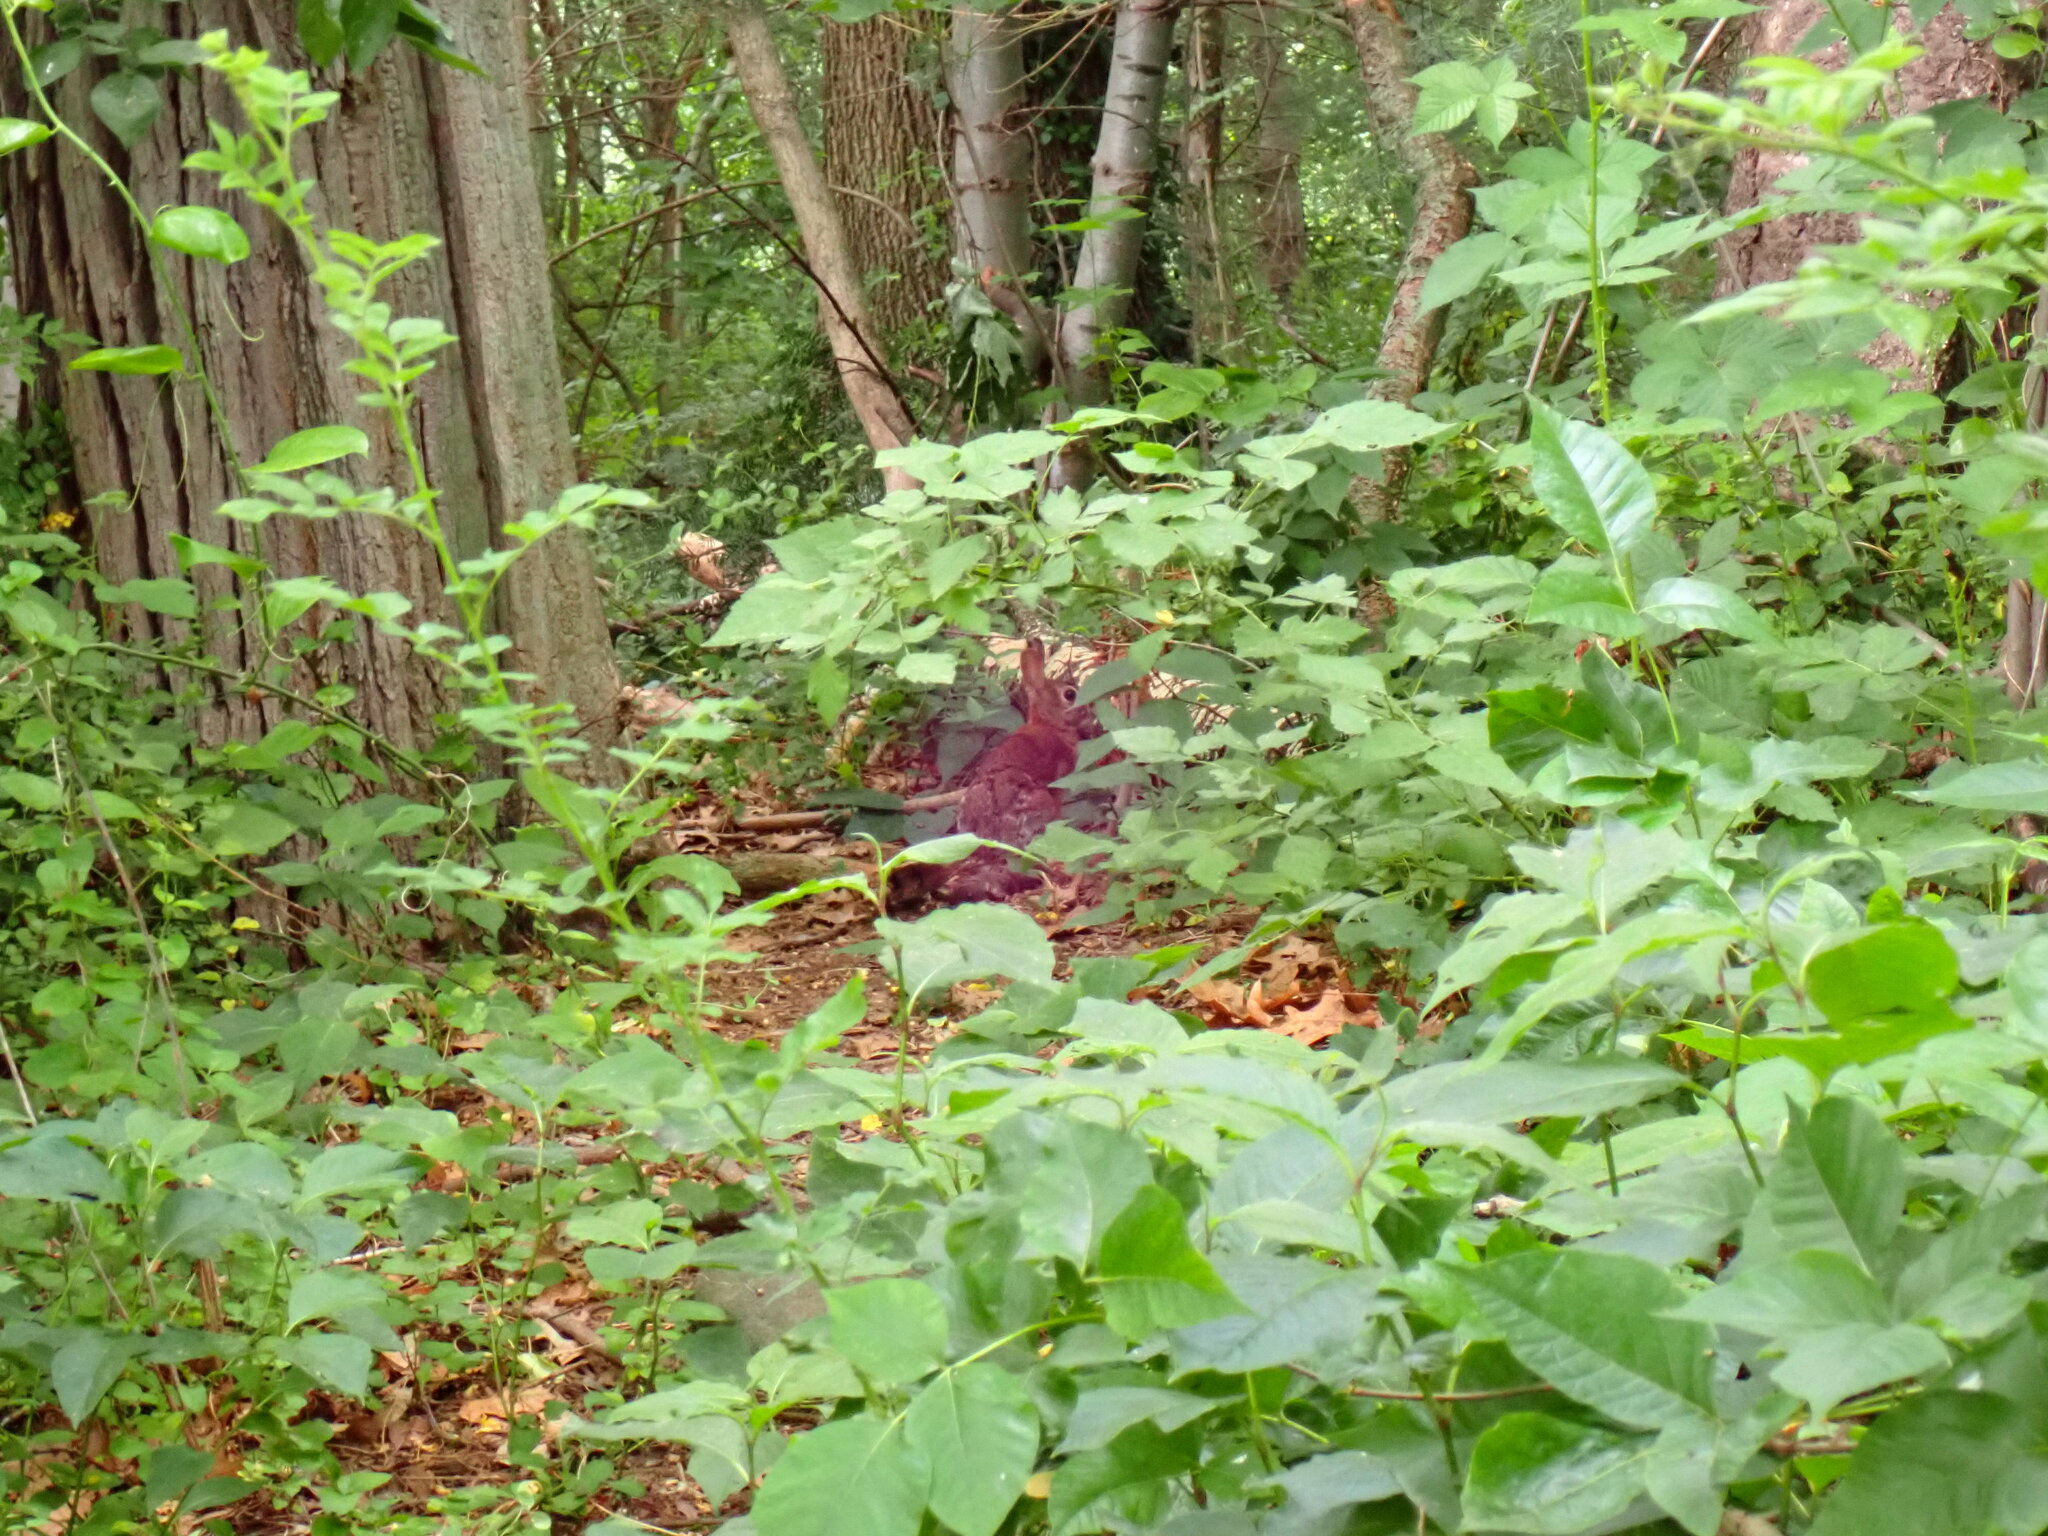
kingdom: Animalia
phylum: Chordata
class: Mammalia
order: Lagomorpha
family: Leporidae
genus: Sylvilagus
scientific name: Sylvilagus floridanus
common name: Eastern cottontail
